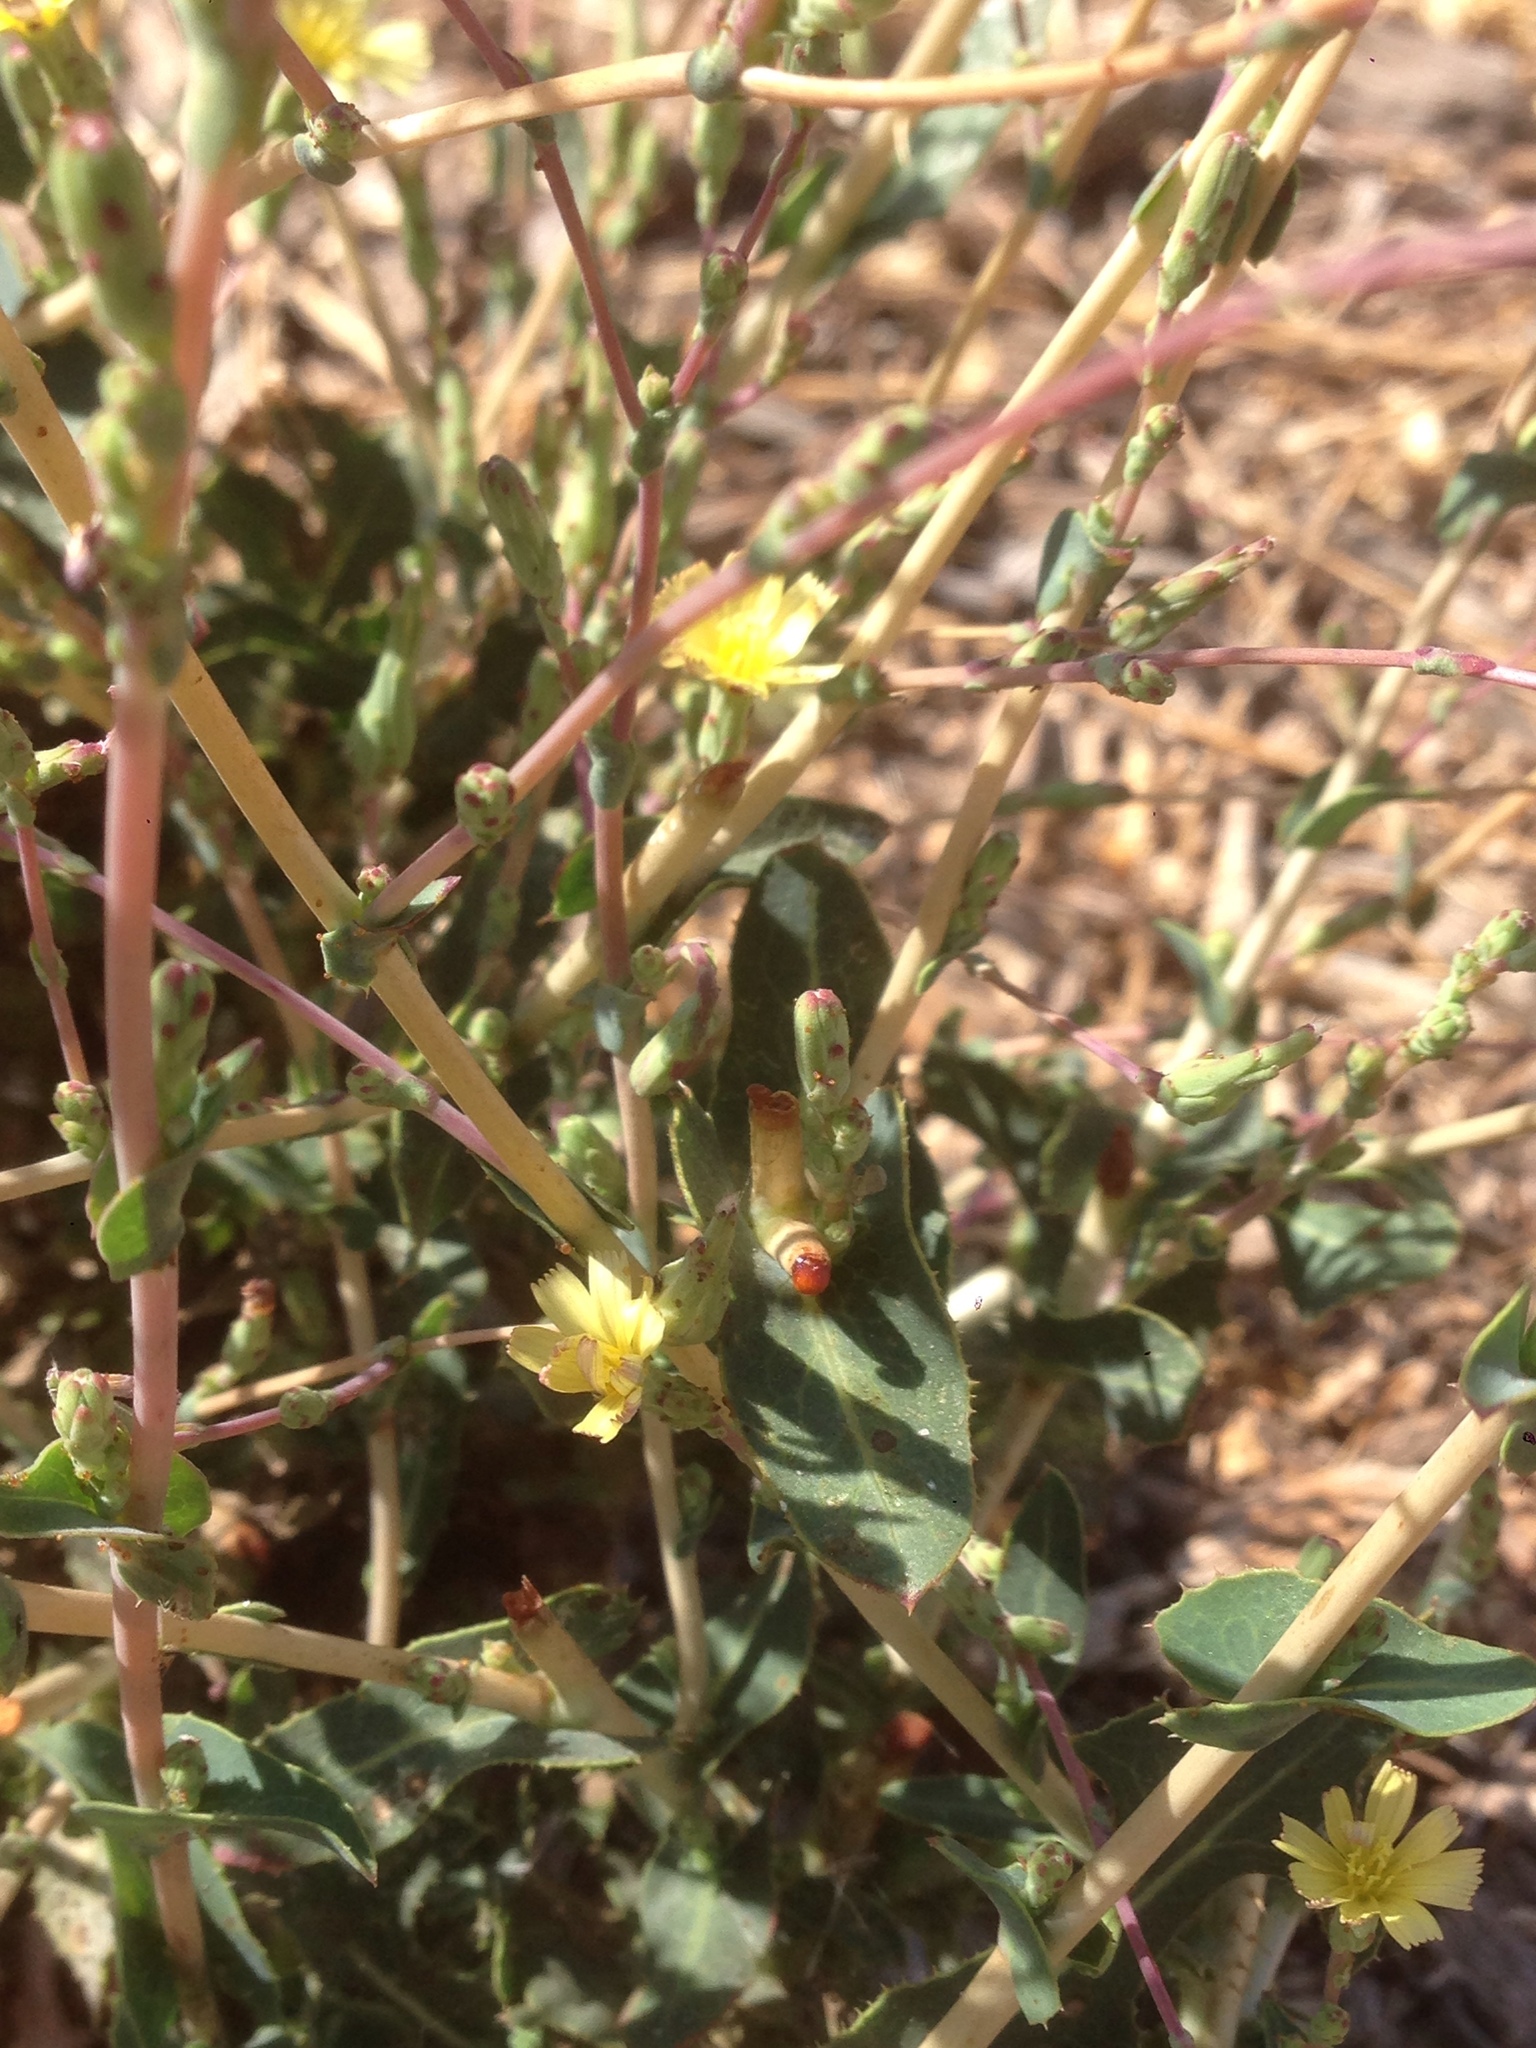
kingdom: Plantae
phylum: Tracheophyta
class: Magnoliopsida
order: Asterales
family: Asteraceae
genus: Lactuca
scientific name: Lactuca serriola
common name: Prickly lettuce
